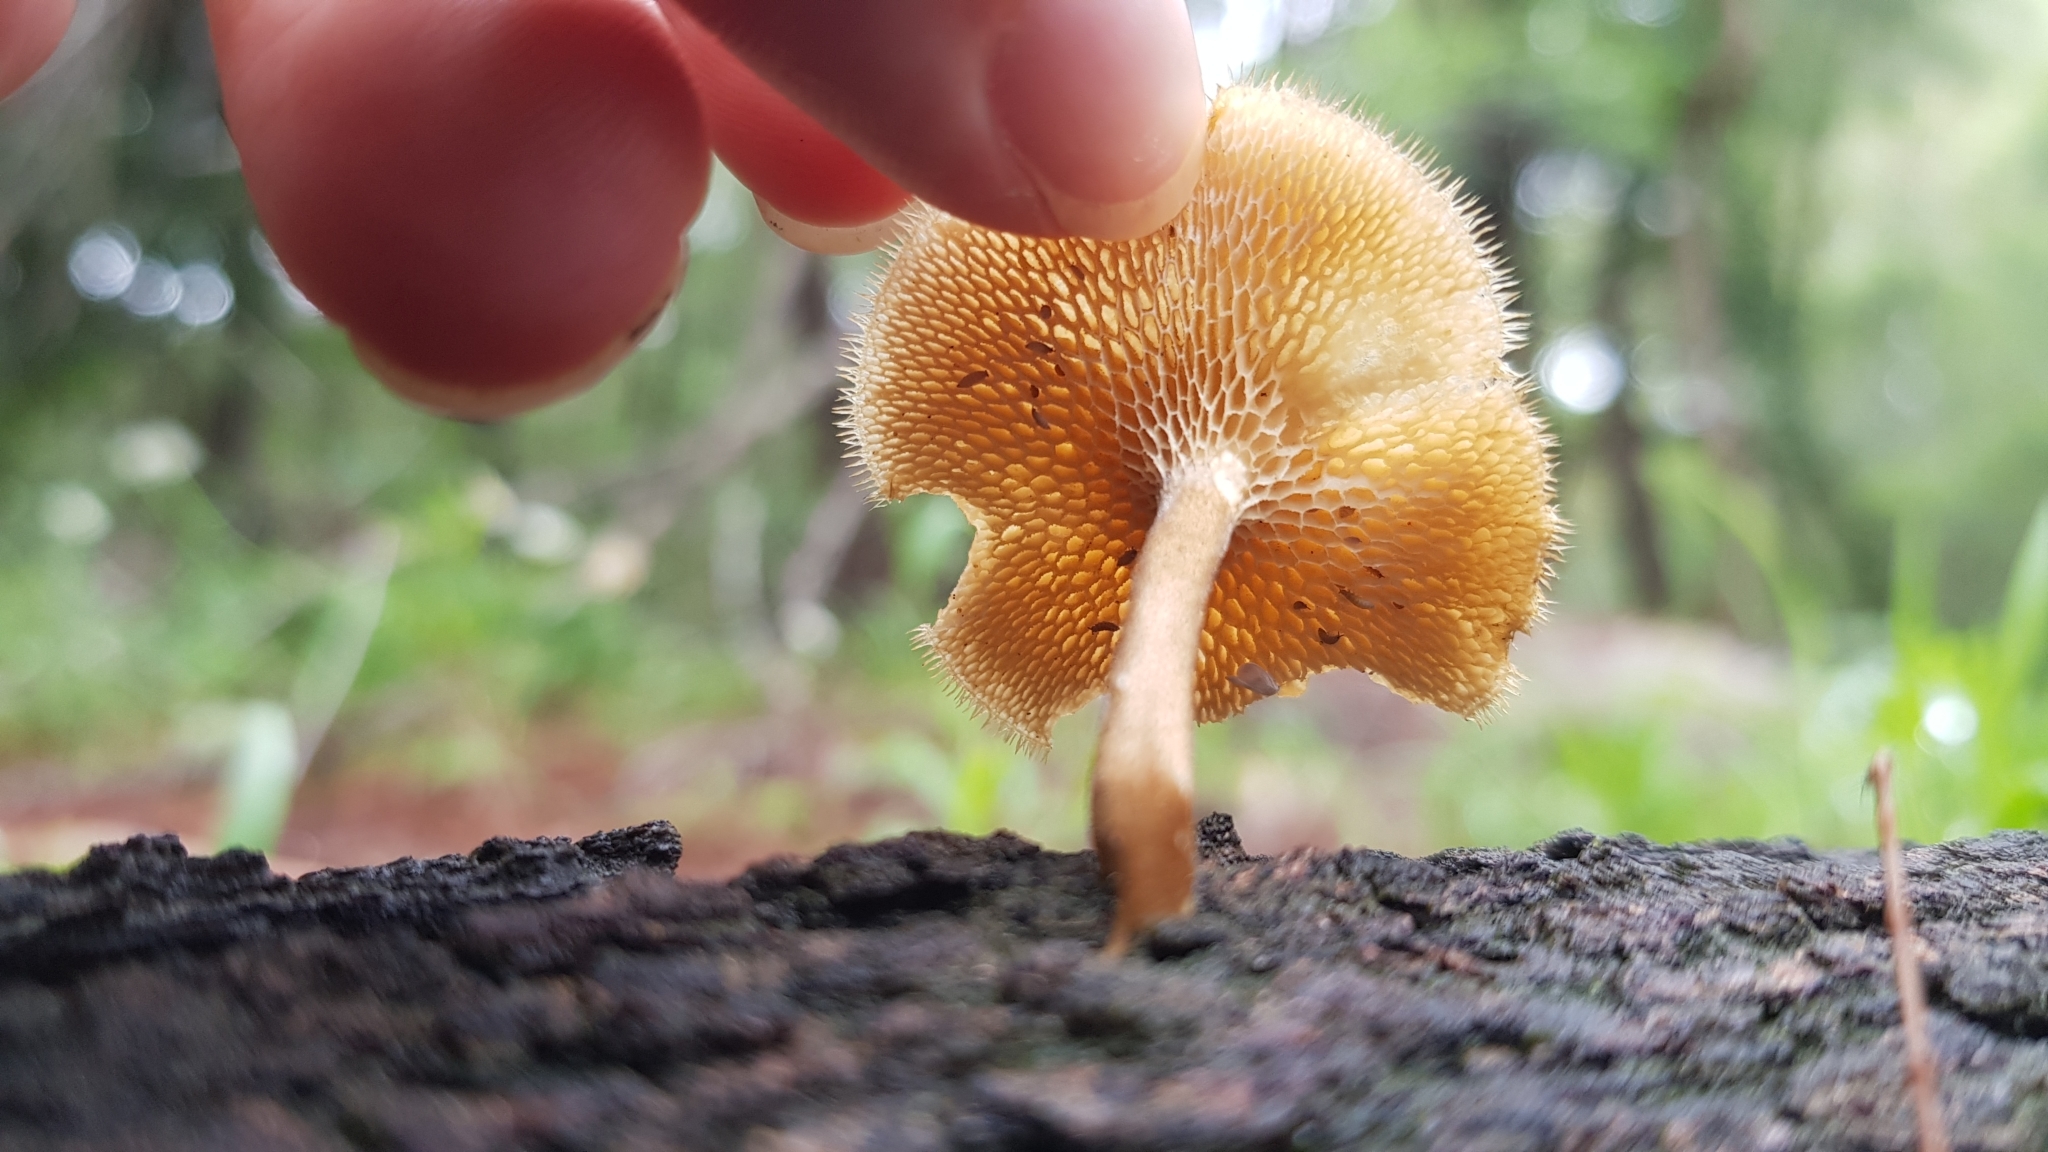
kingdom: Fungi
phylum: Basidiomycota
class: Agaricomycetes
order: Polyporales
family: Polyporaceae
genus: Lentinus
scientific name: Lentinus arcularius
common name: Spring polypore
